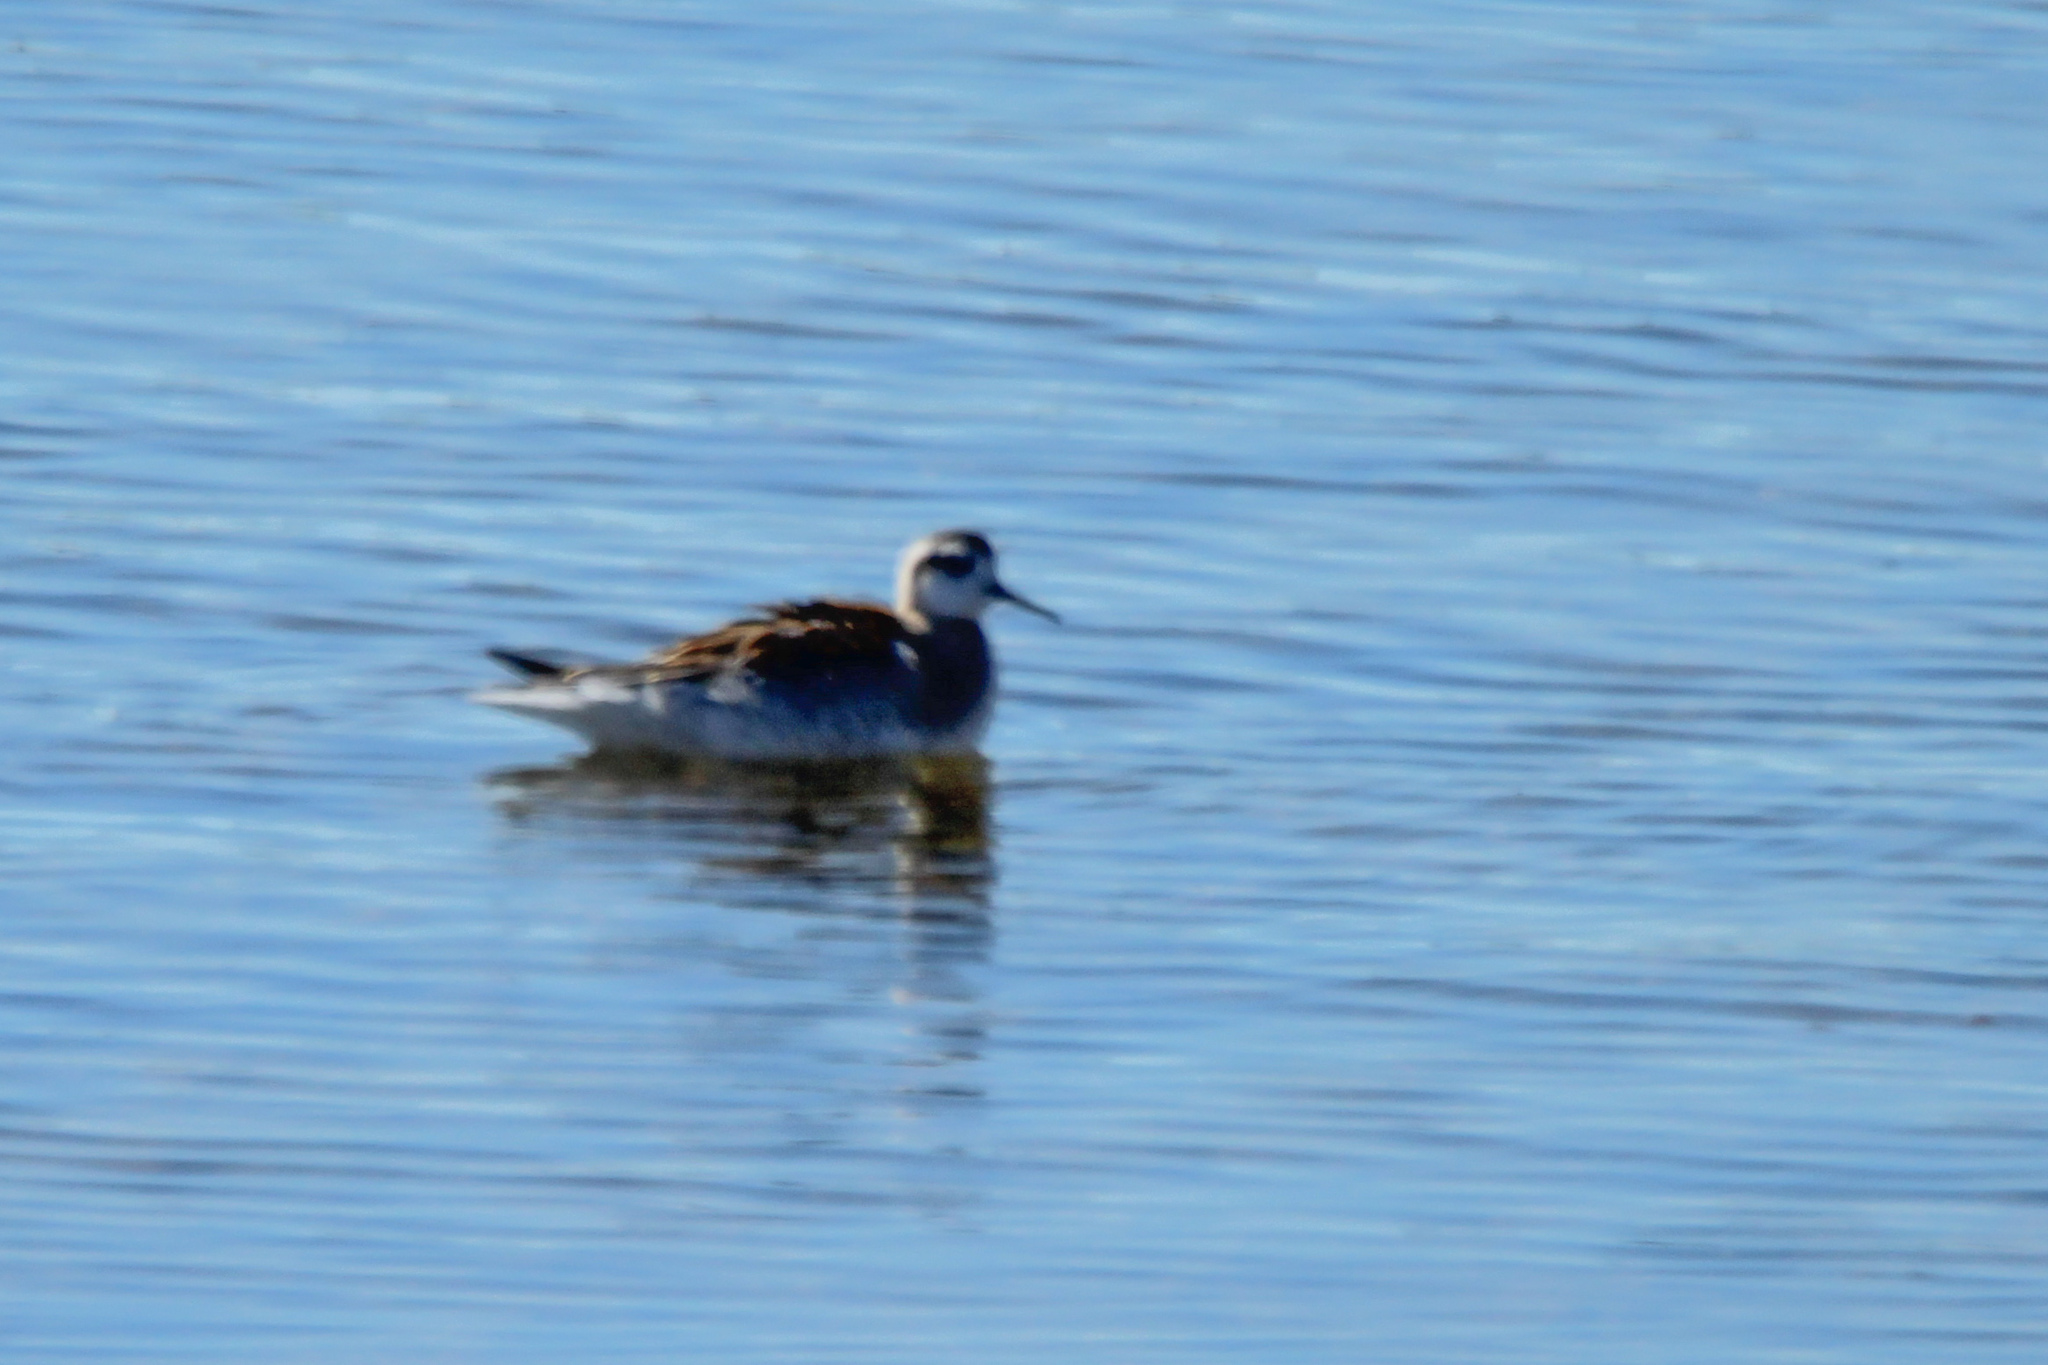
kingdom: Animalia
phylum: Chordata
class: Aves
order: Charadriiformes
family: Scolopacidae
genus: Phalaropus
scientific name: Phalaropus lobatus
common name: Red-necked phalarope
